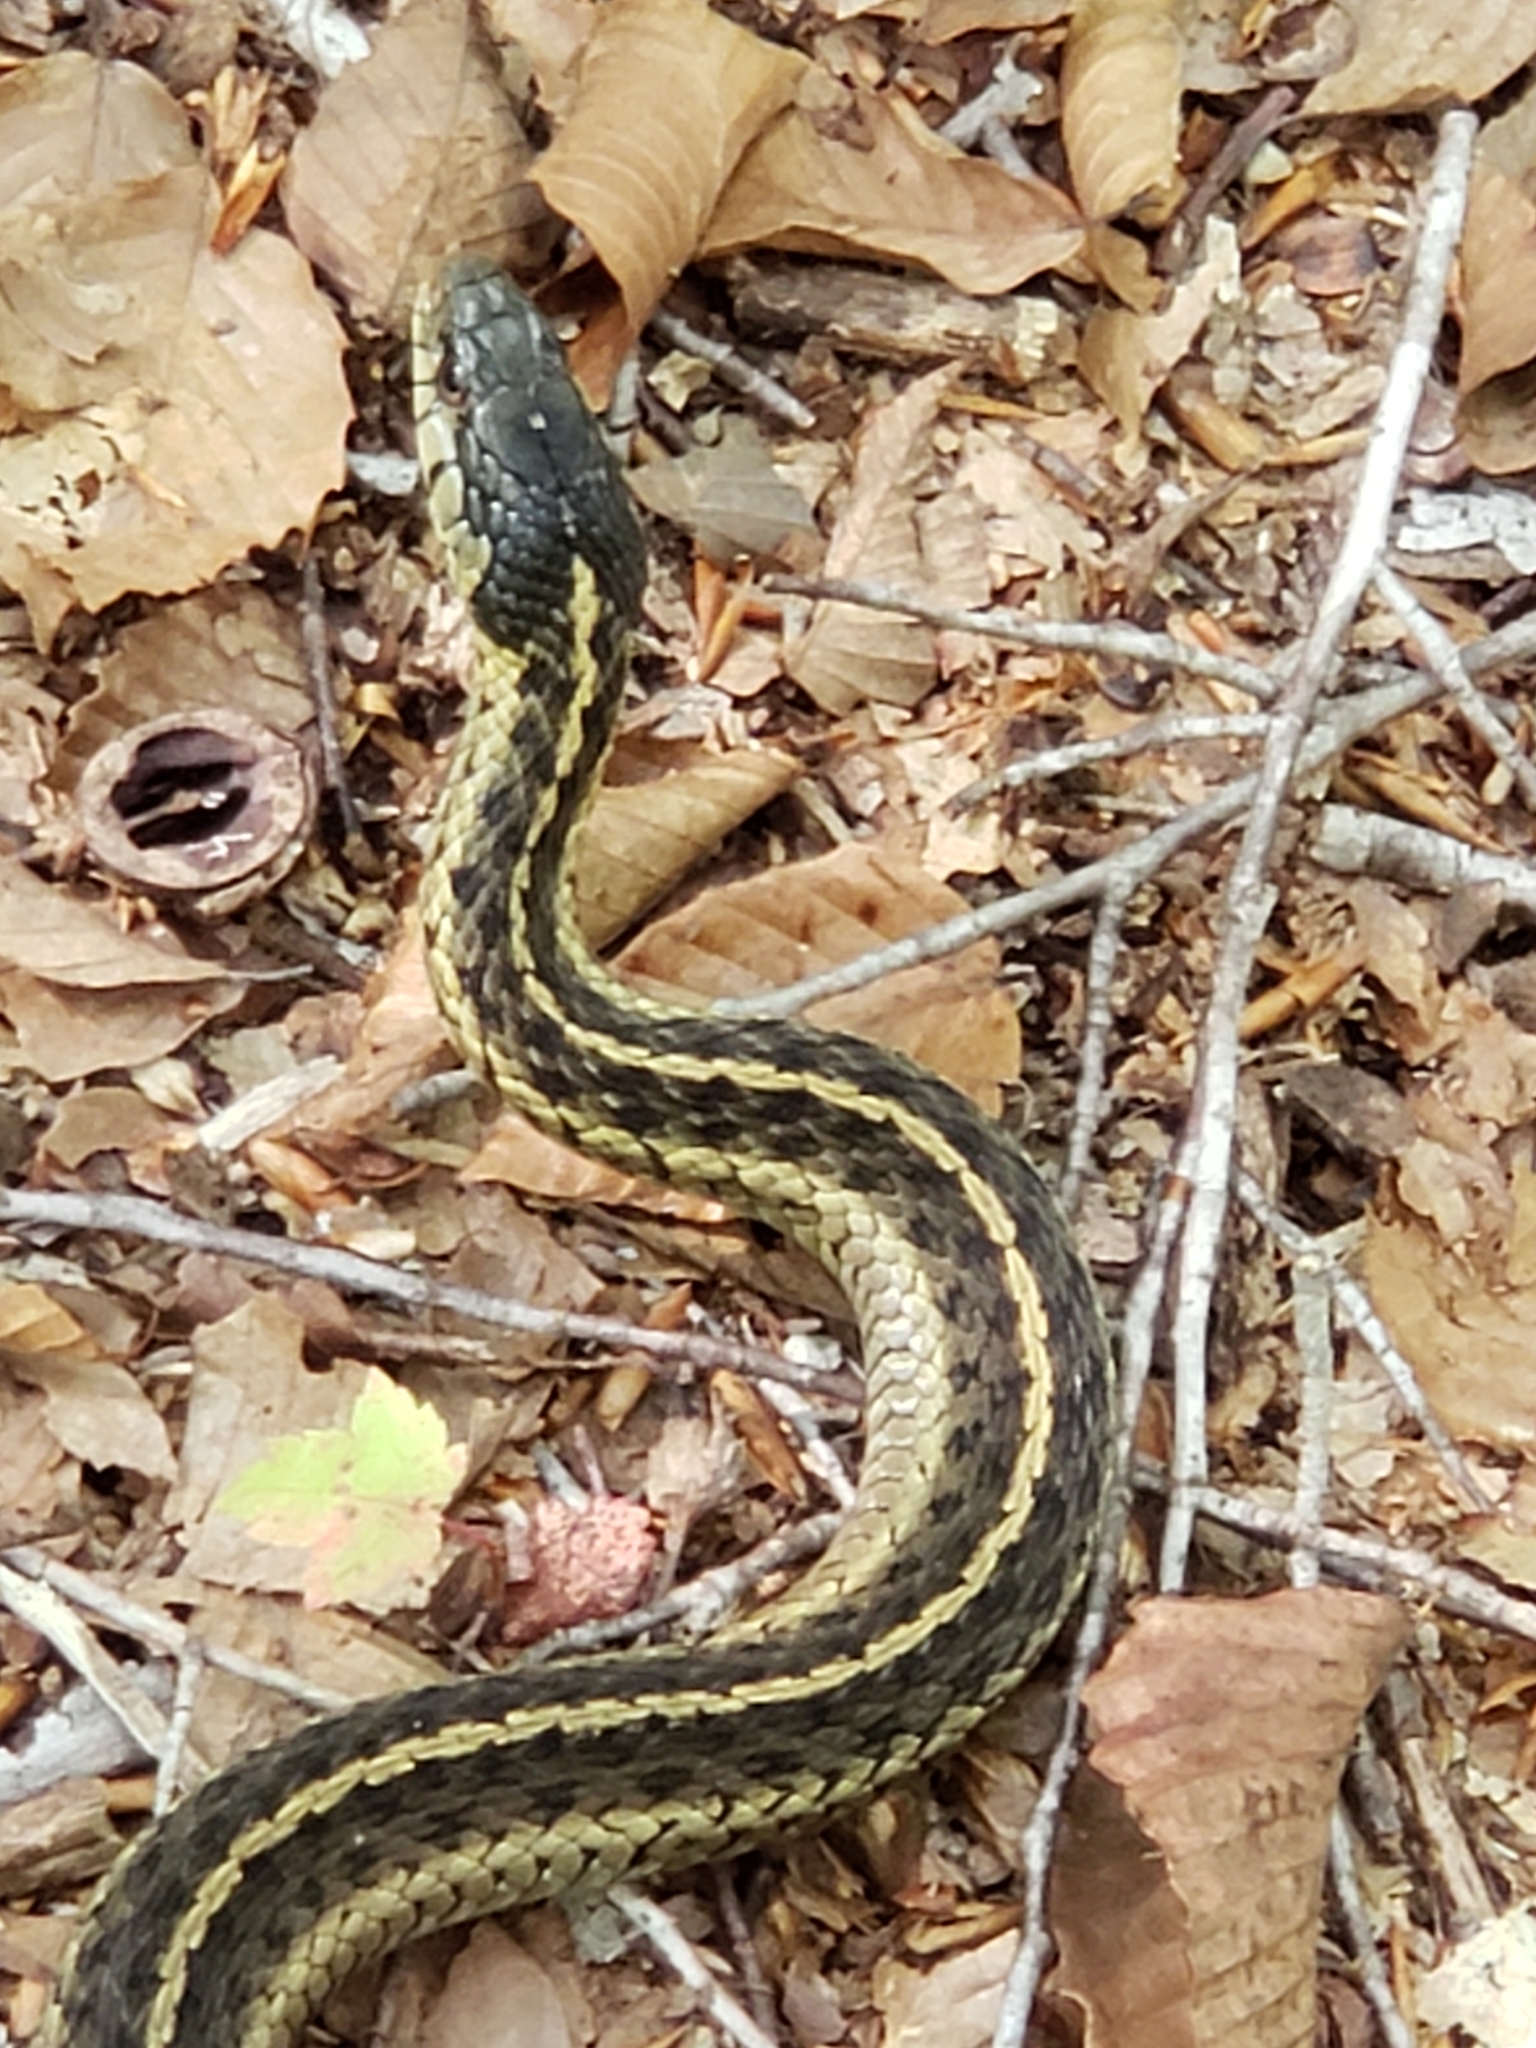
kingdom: Animalia
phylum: Chordata
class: Squamata
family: Colubridae
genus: Thamnophis
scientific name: Thamnophis sirtalis
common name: Common garter snake
